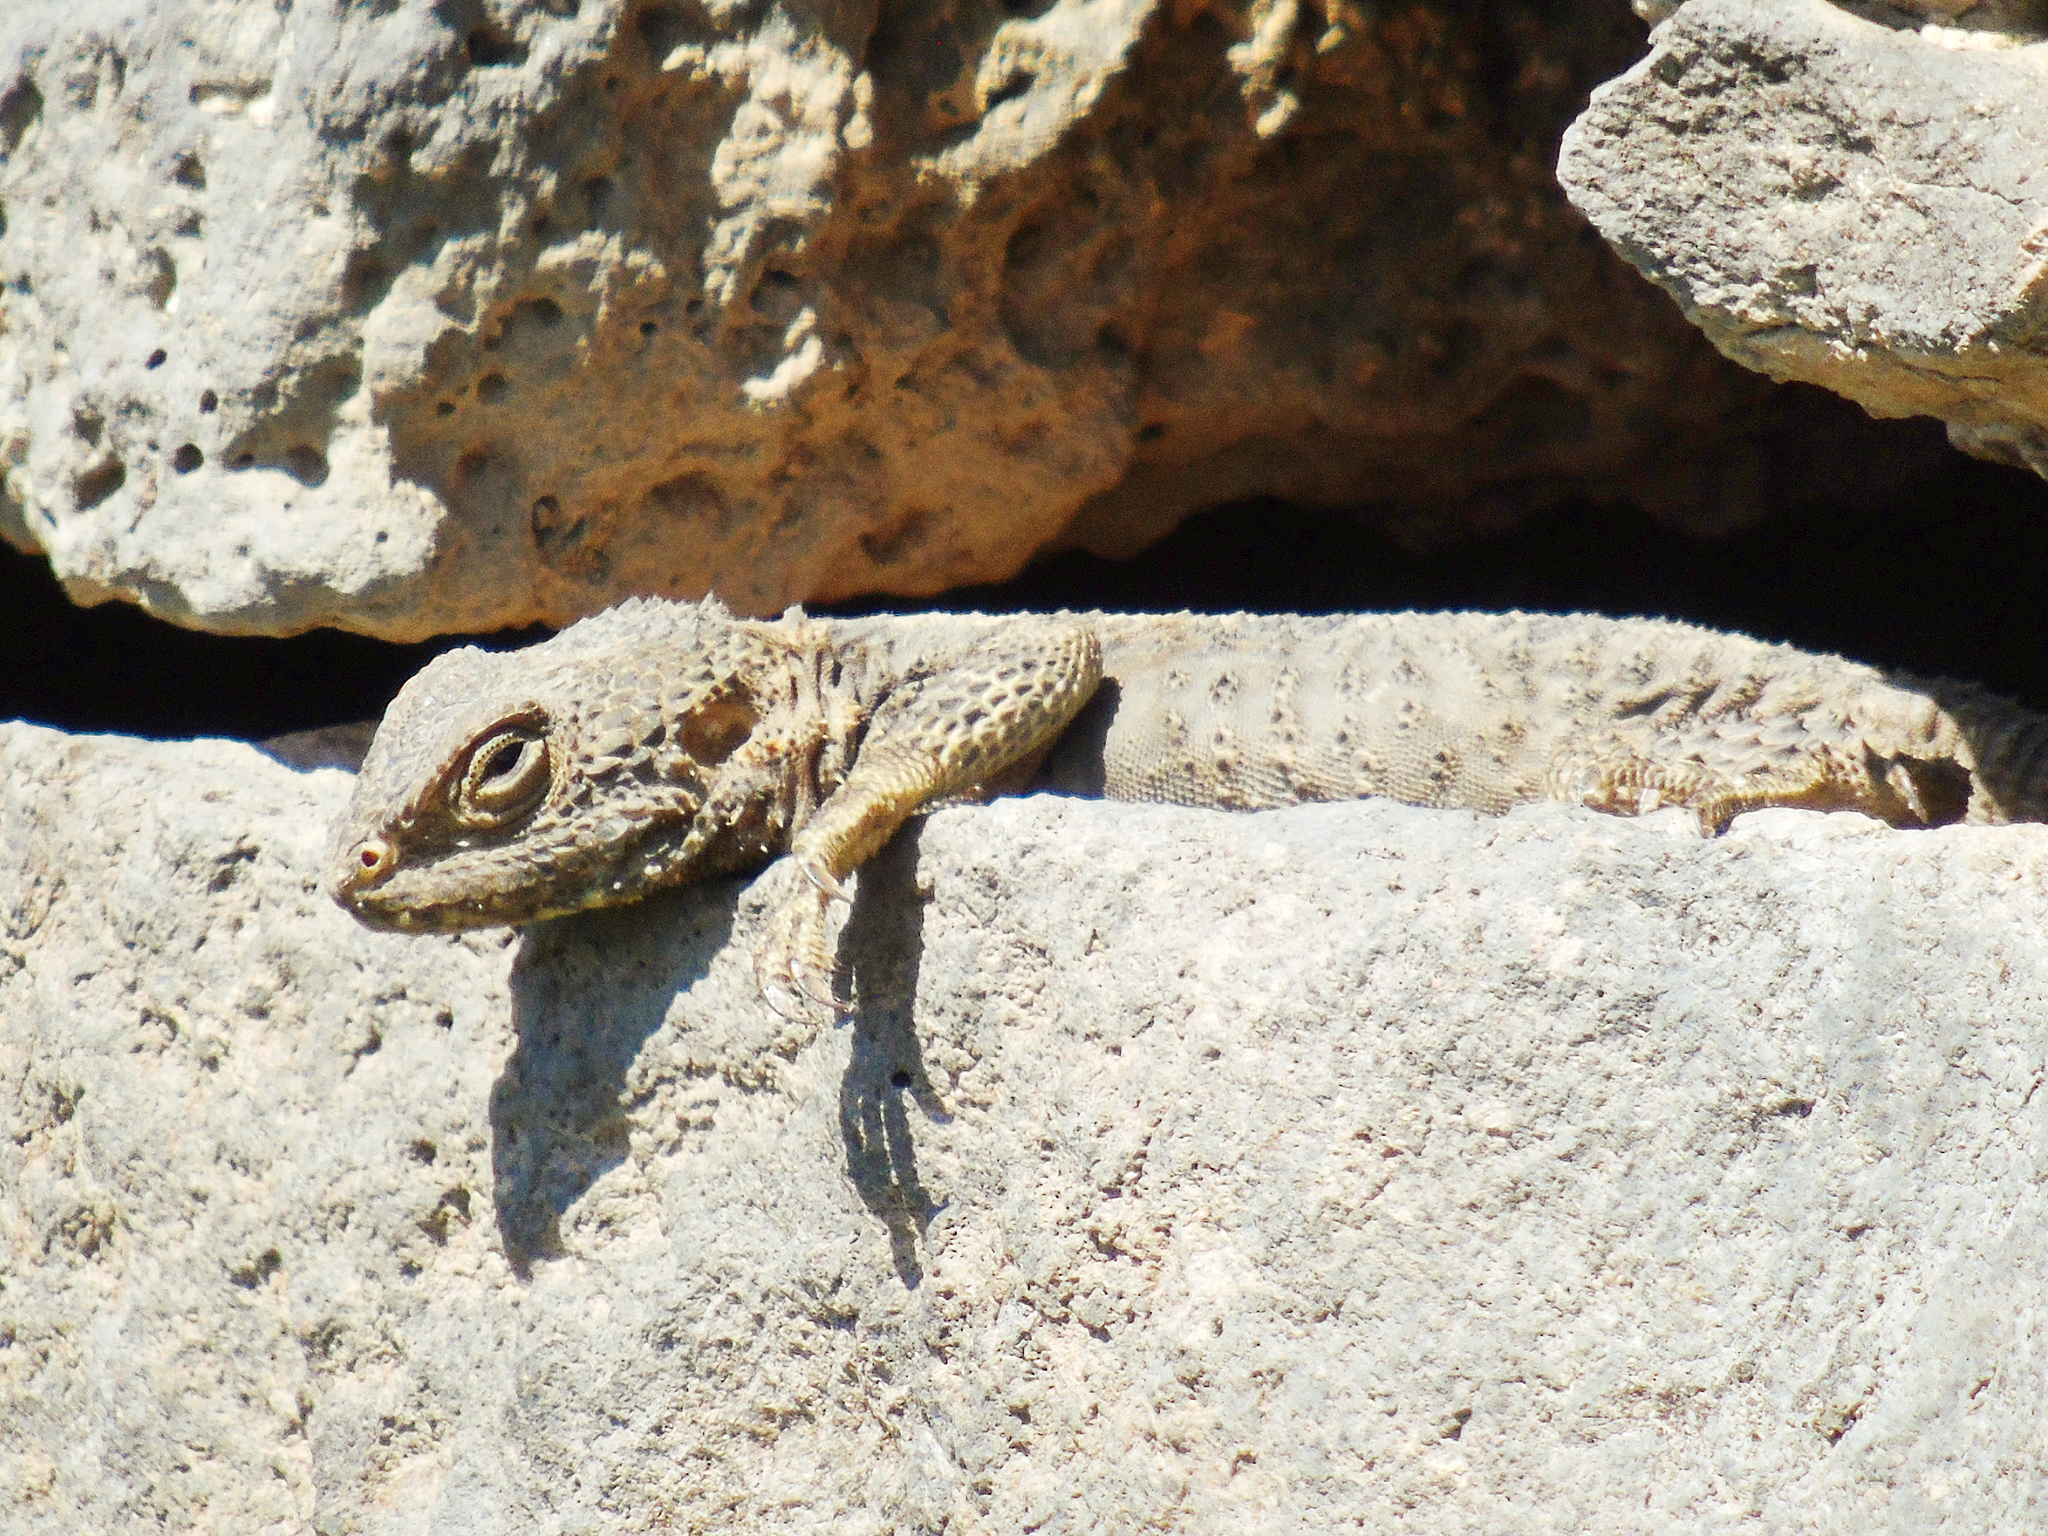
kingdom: Animalia
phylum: Chordata
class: Squamata
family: Agamidae
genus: Stellagama
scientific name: Stellagama stellio
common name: Starred agama
